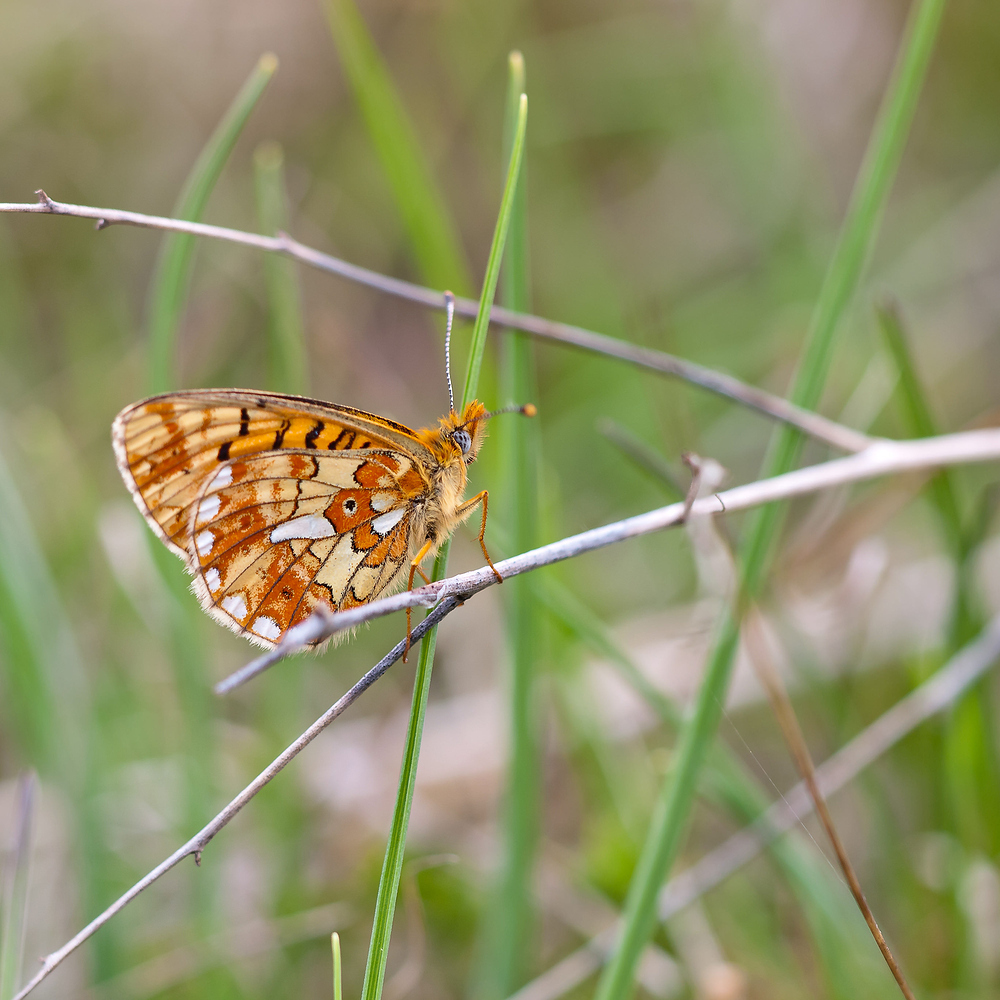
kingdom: Animalia
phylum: Arthropoda
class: Insecta
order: Lepidoptera
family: Nymphalidae
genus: Clossiana
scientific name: Clossiana euphrosyne
